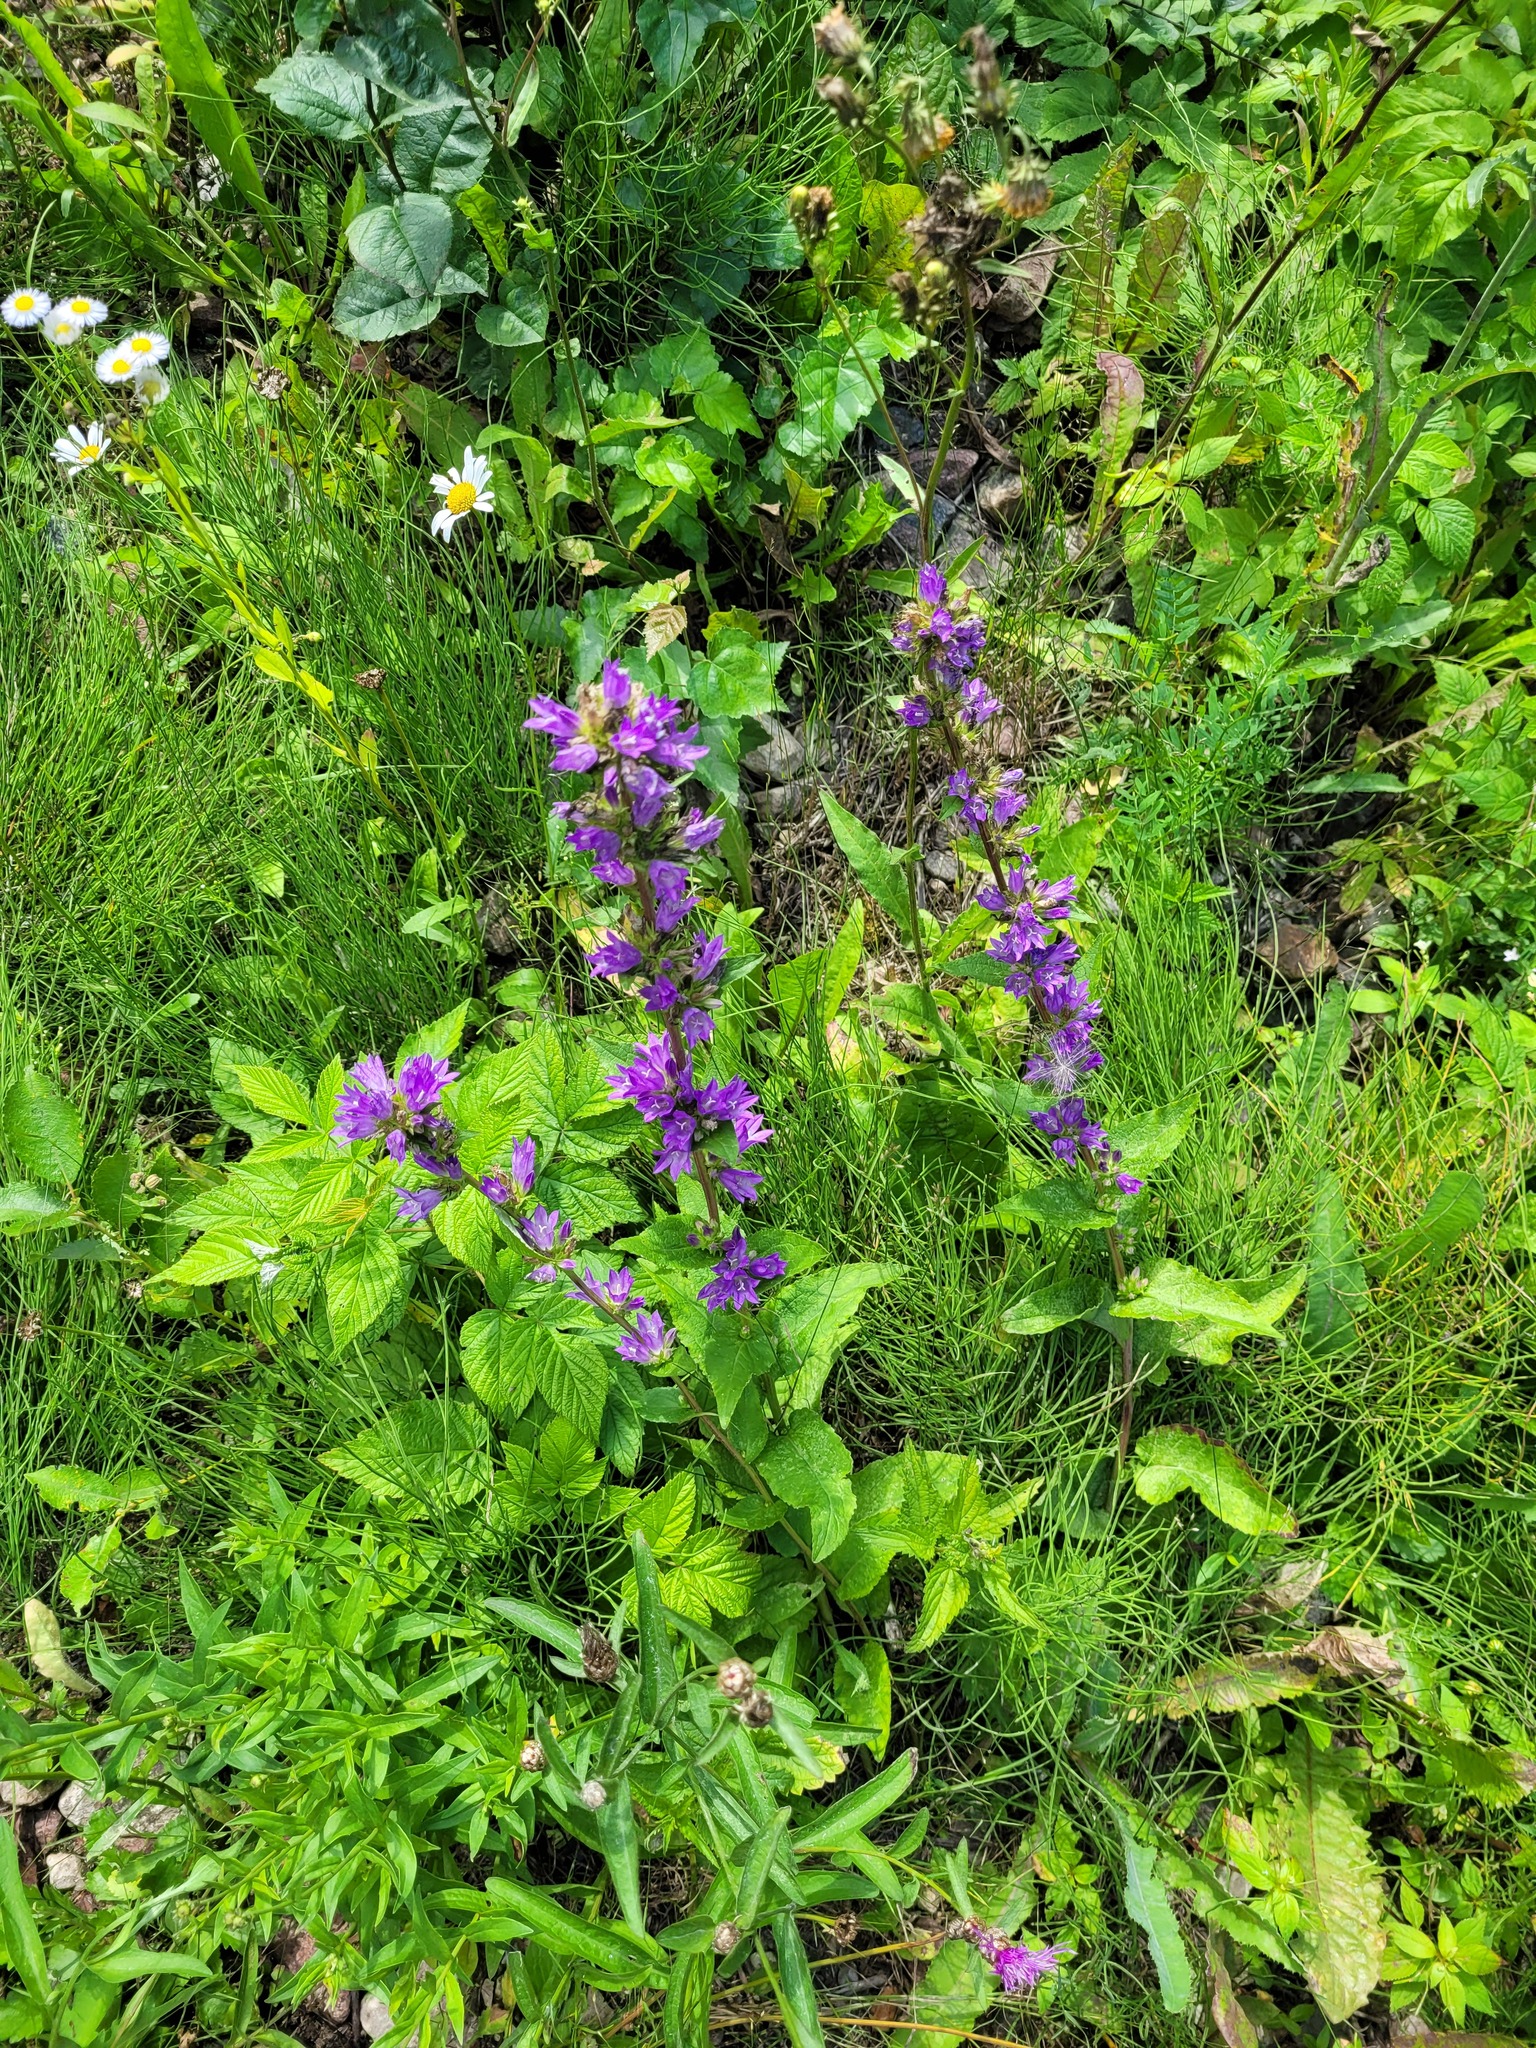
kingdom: Plantae
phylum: Tracheophyta
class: Magnoliopsida
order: Asterales
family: Campanulaceae
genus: Campanula
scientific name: Campanula glomerata
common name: Clustered bellflower
